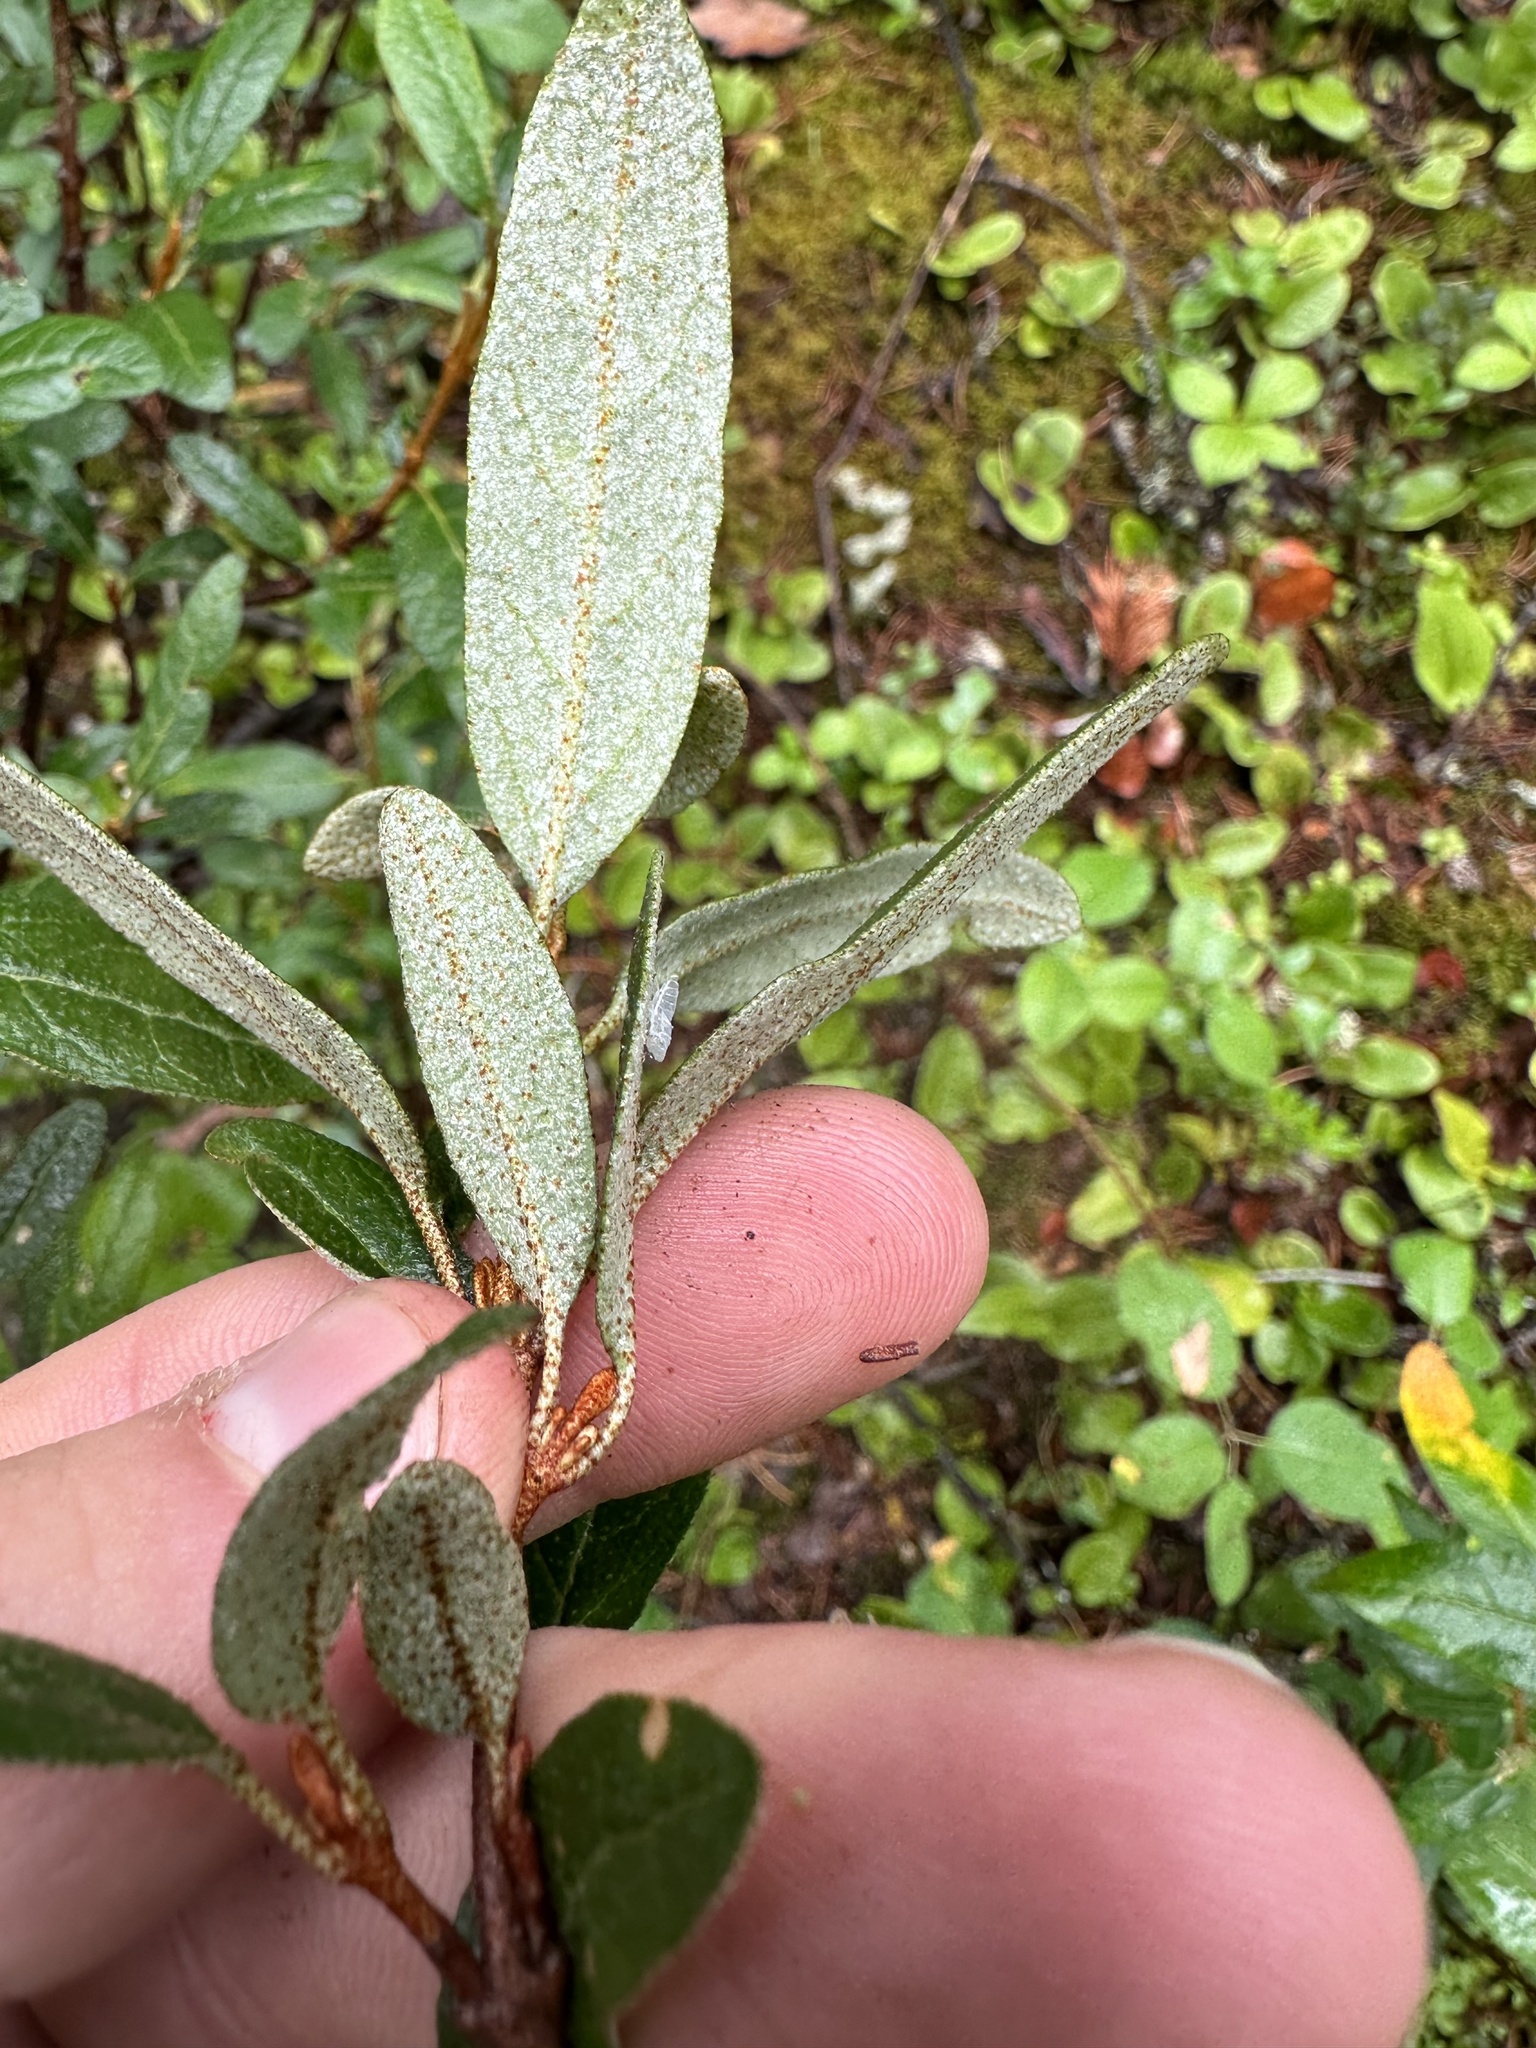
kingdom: Plantae
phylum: Tracheophyta
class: Magnoliopsida
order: Rosales
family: Elaeagnaceae
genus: Shepherdia
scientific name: Shepherdia canadensis
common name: Soapberry
